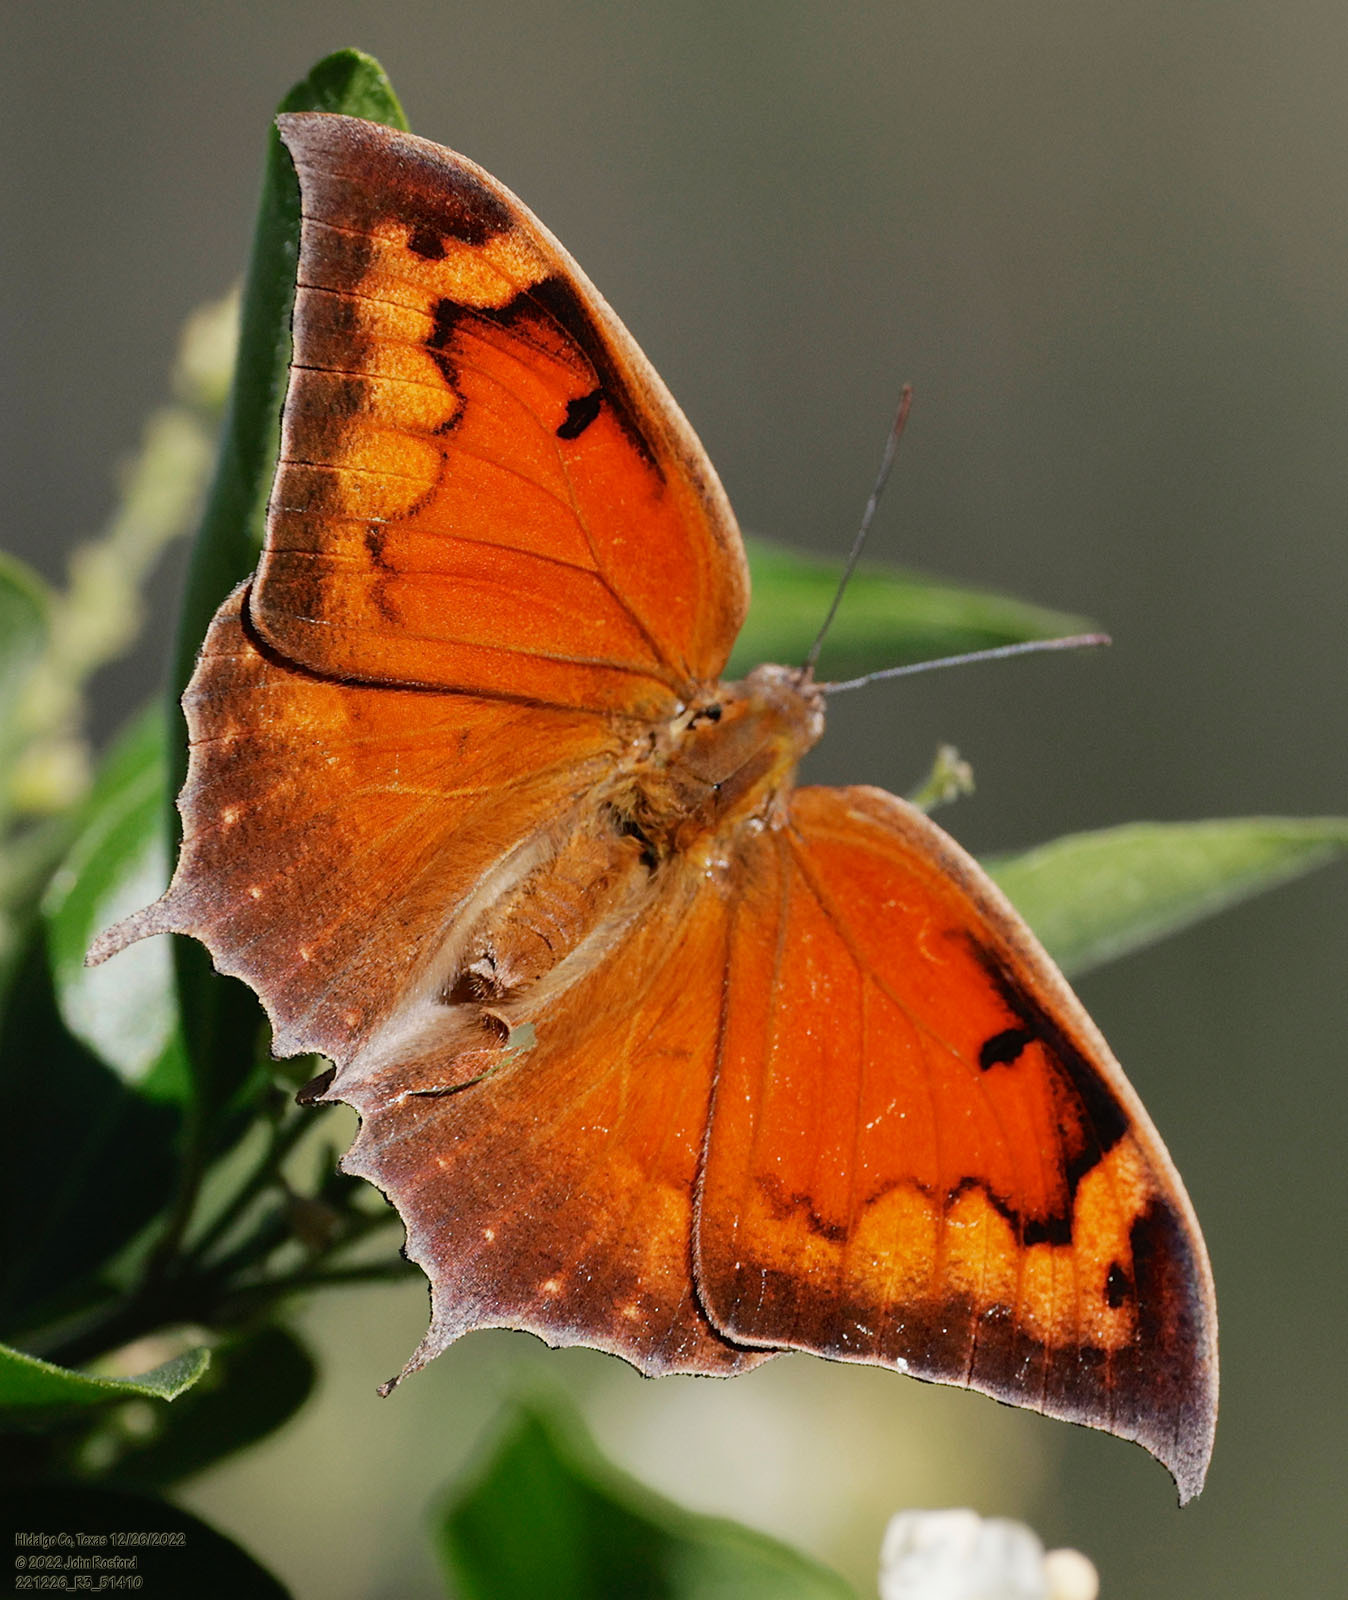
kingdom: Animalia
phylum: Arthropoda
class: Insecta
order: Lepidoptera
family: Nymphalidae
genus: Anaea
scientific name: Anaea aidea
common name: Tropical leafwing
